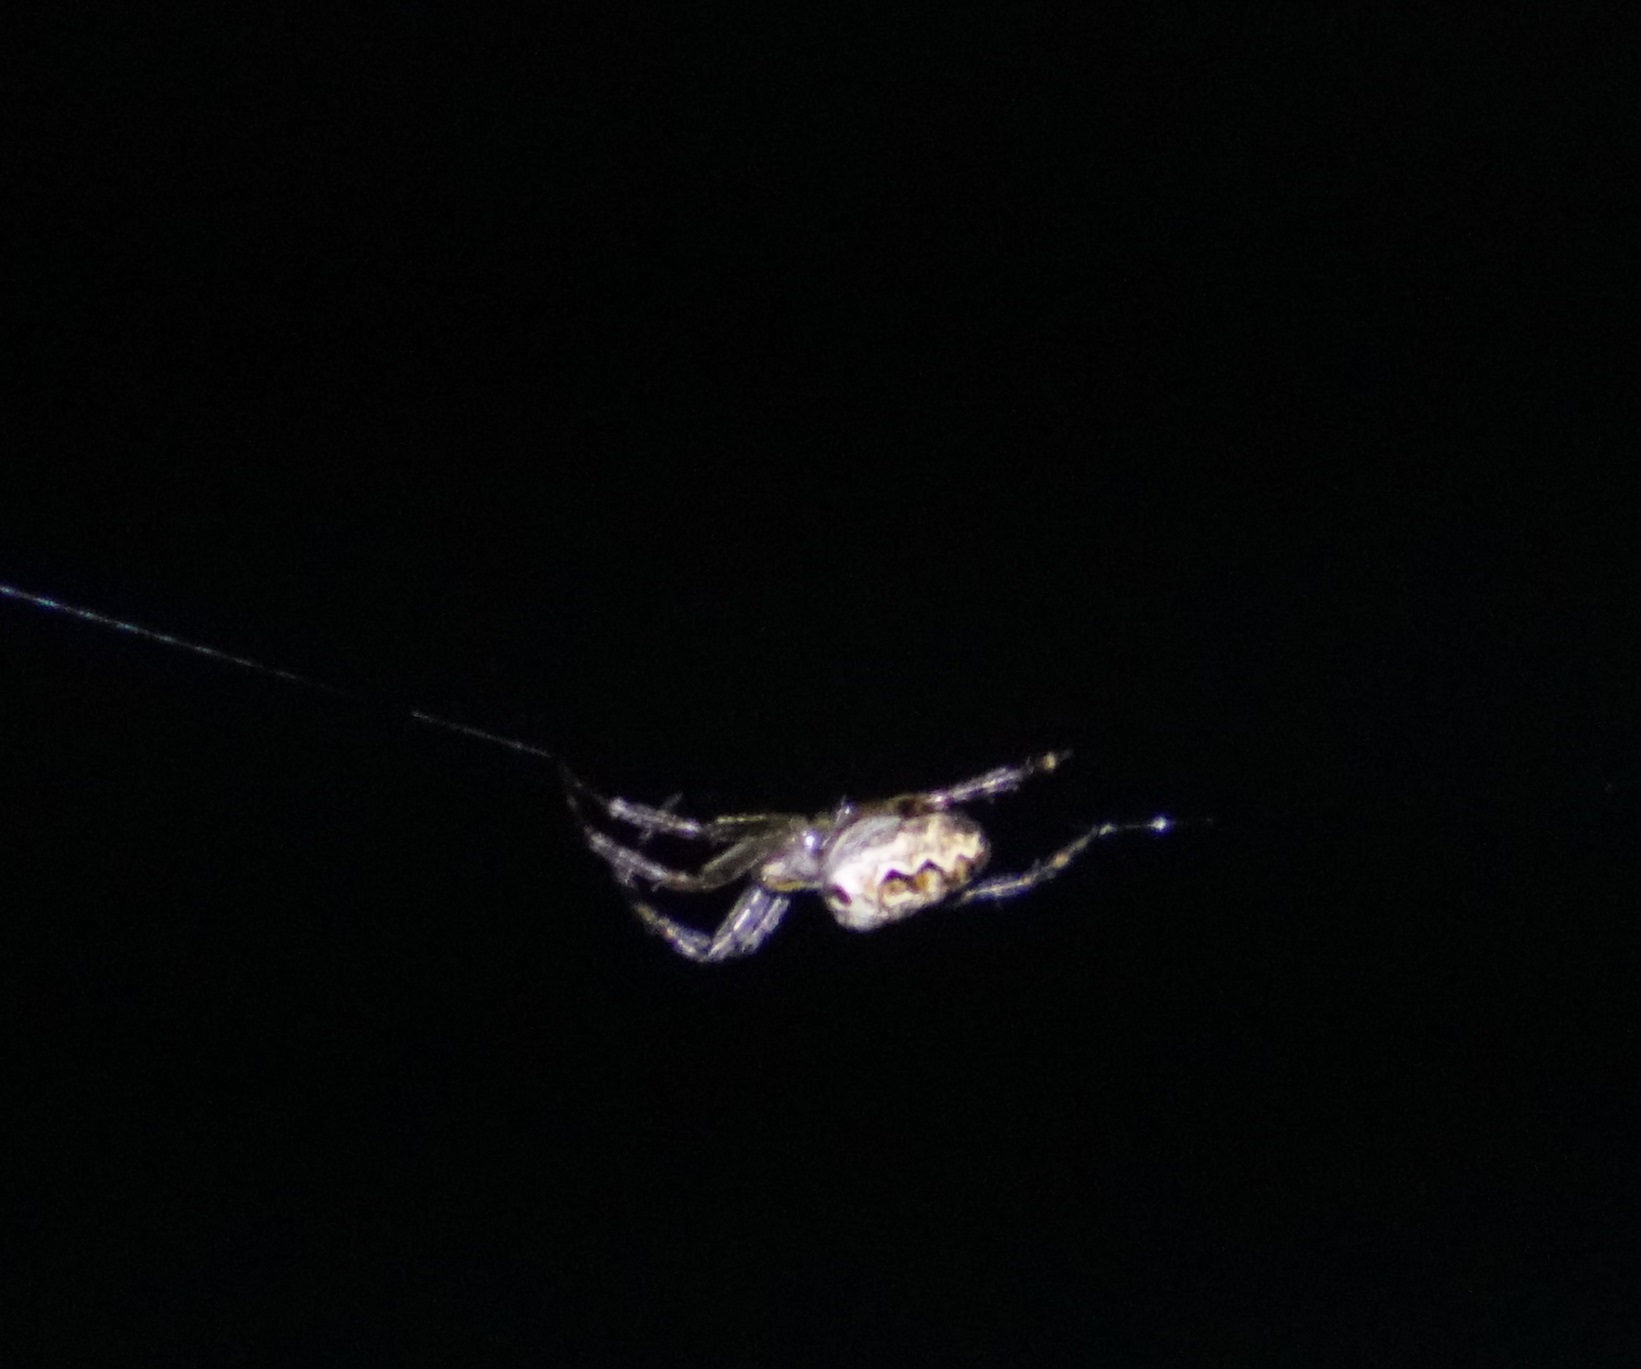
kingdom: Animalia
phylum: Arthropoda
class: Arachnida
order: Araneae
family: Araneidae
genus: Plebs
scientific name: Plebs eburnus
